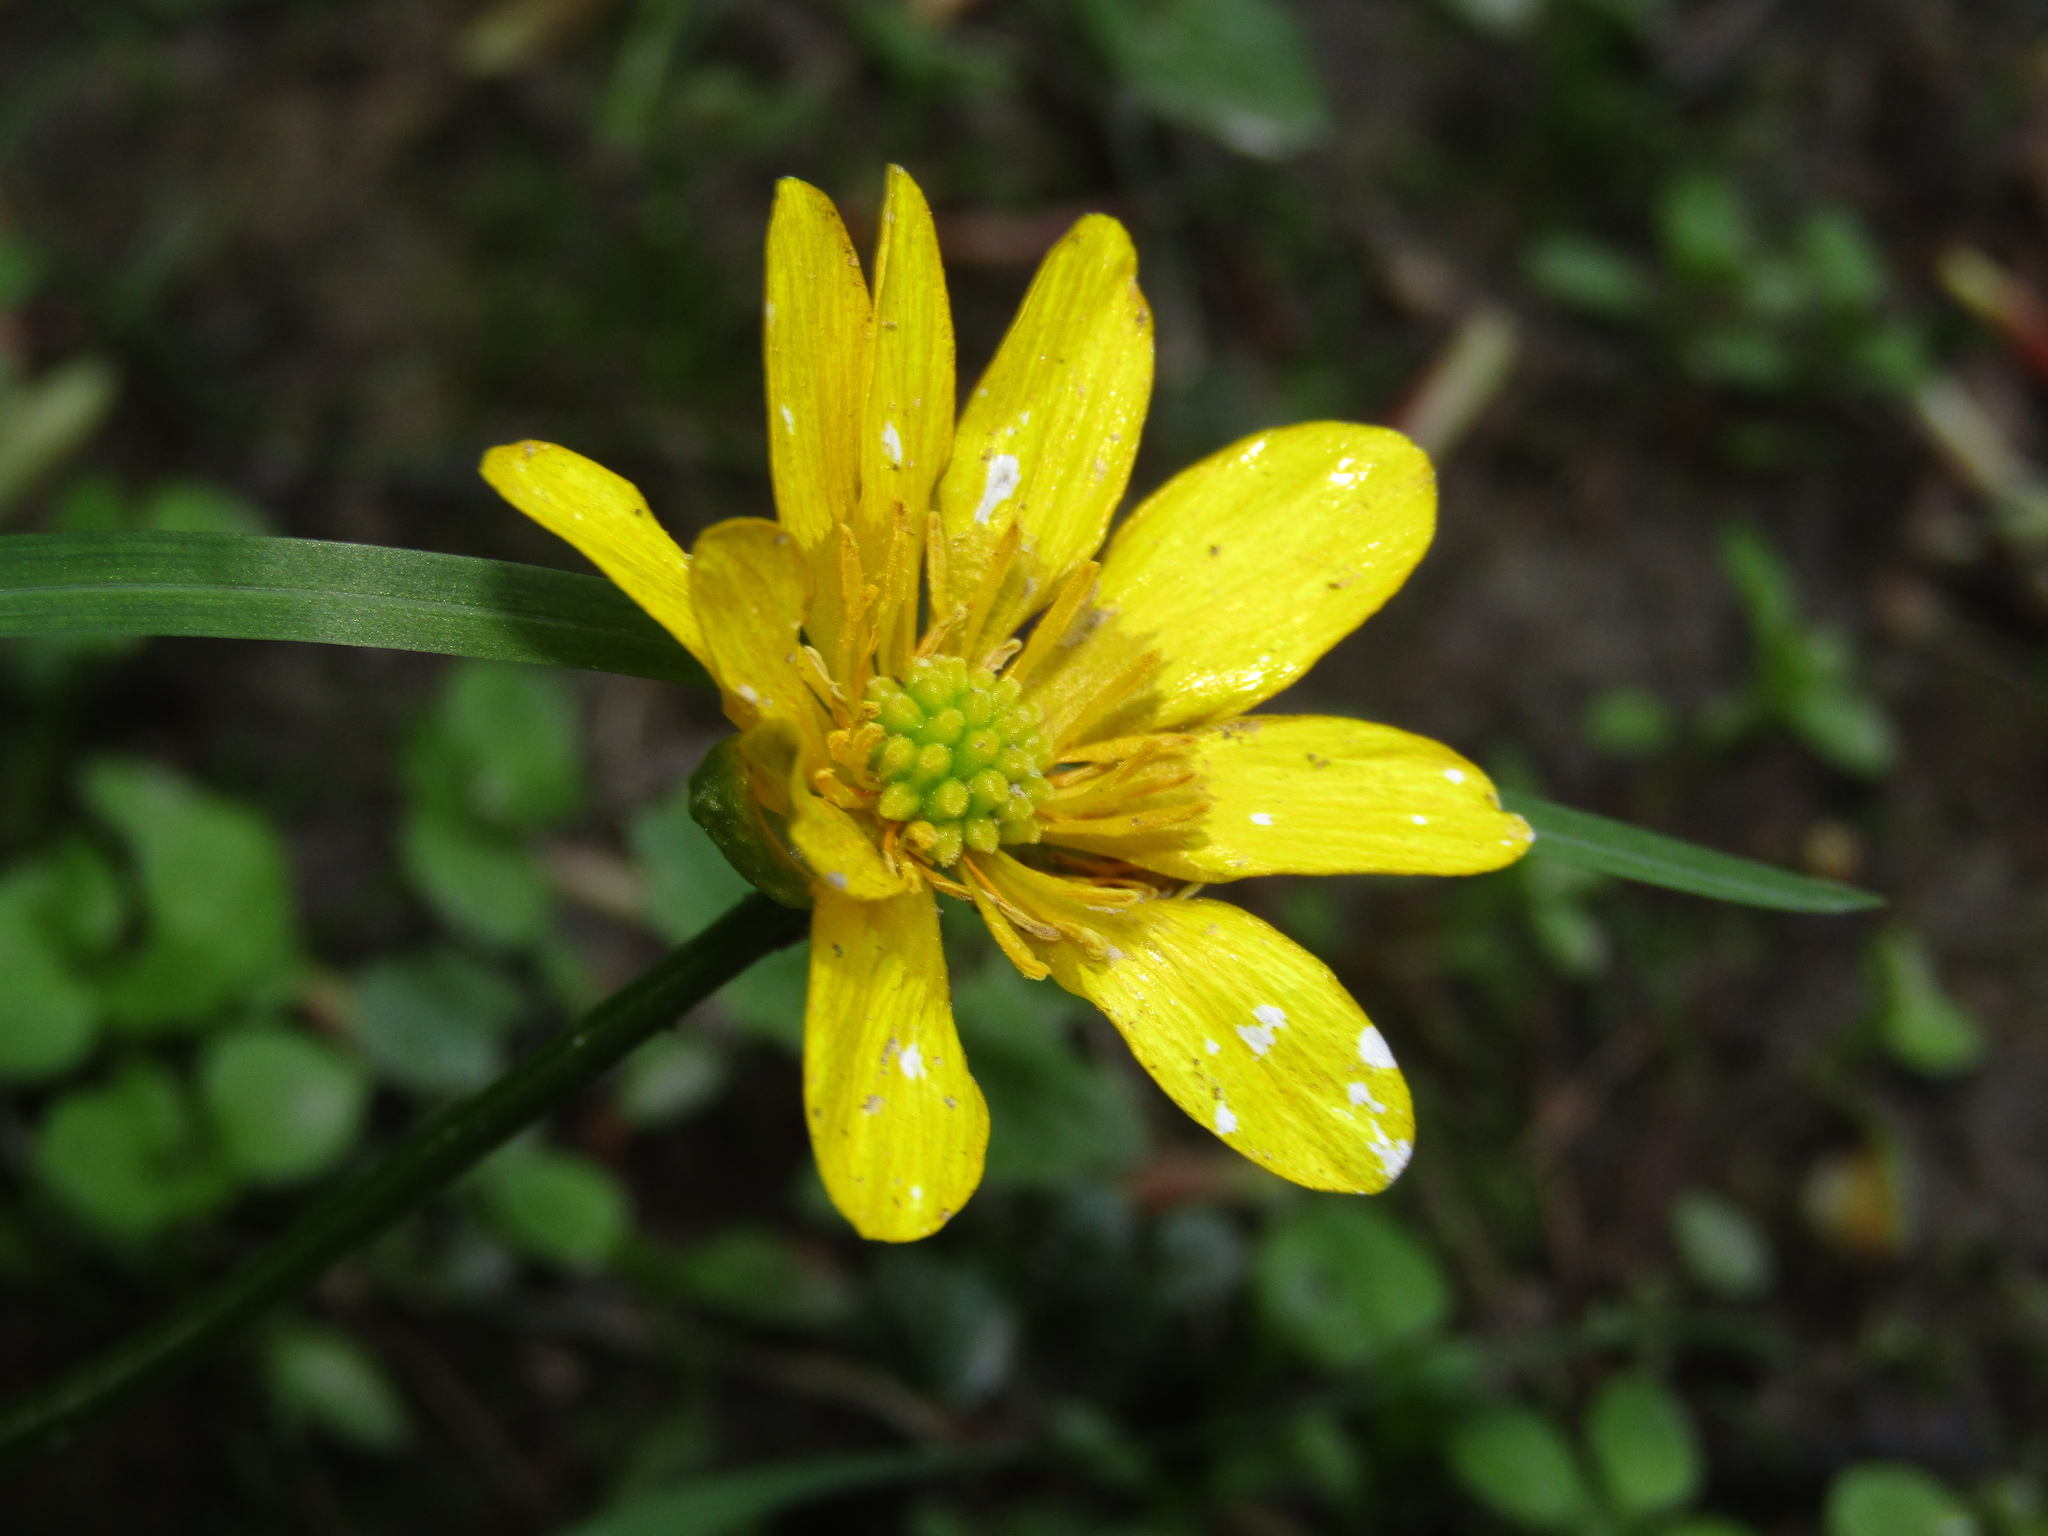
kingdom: Plantae
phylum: Tracheophyta
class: Magnoliopsida
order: Ranunculales
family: Ranunculaceae
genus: Ficaria
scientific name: Ficaria verna
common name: Lesser celandine
